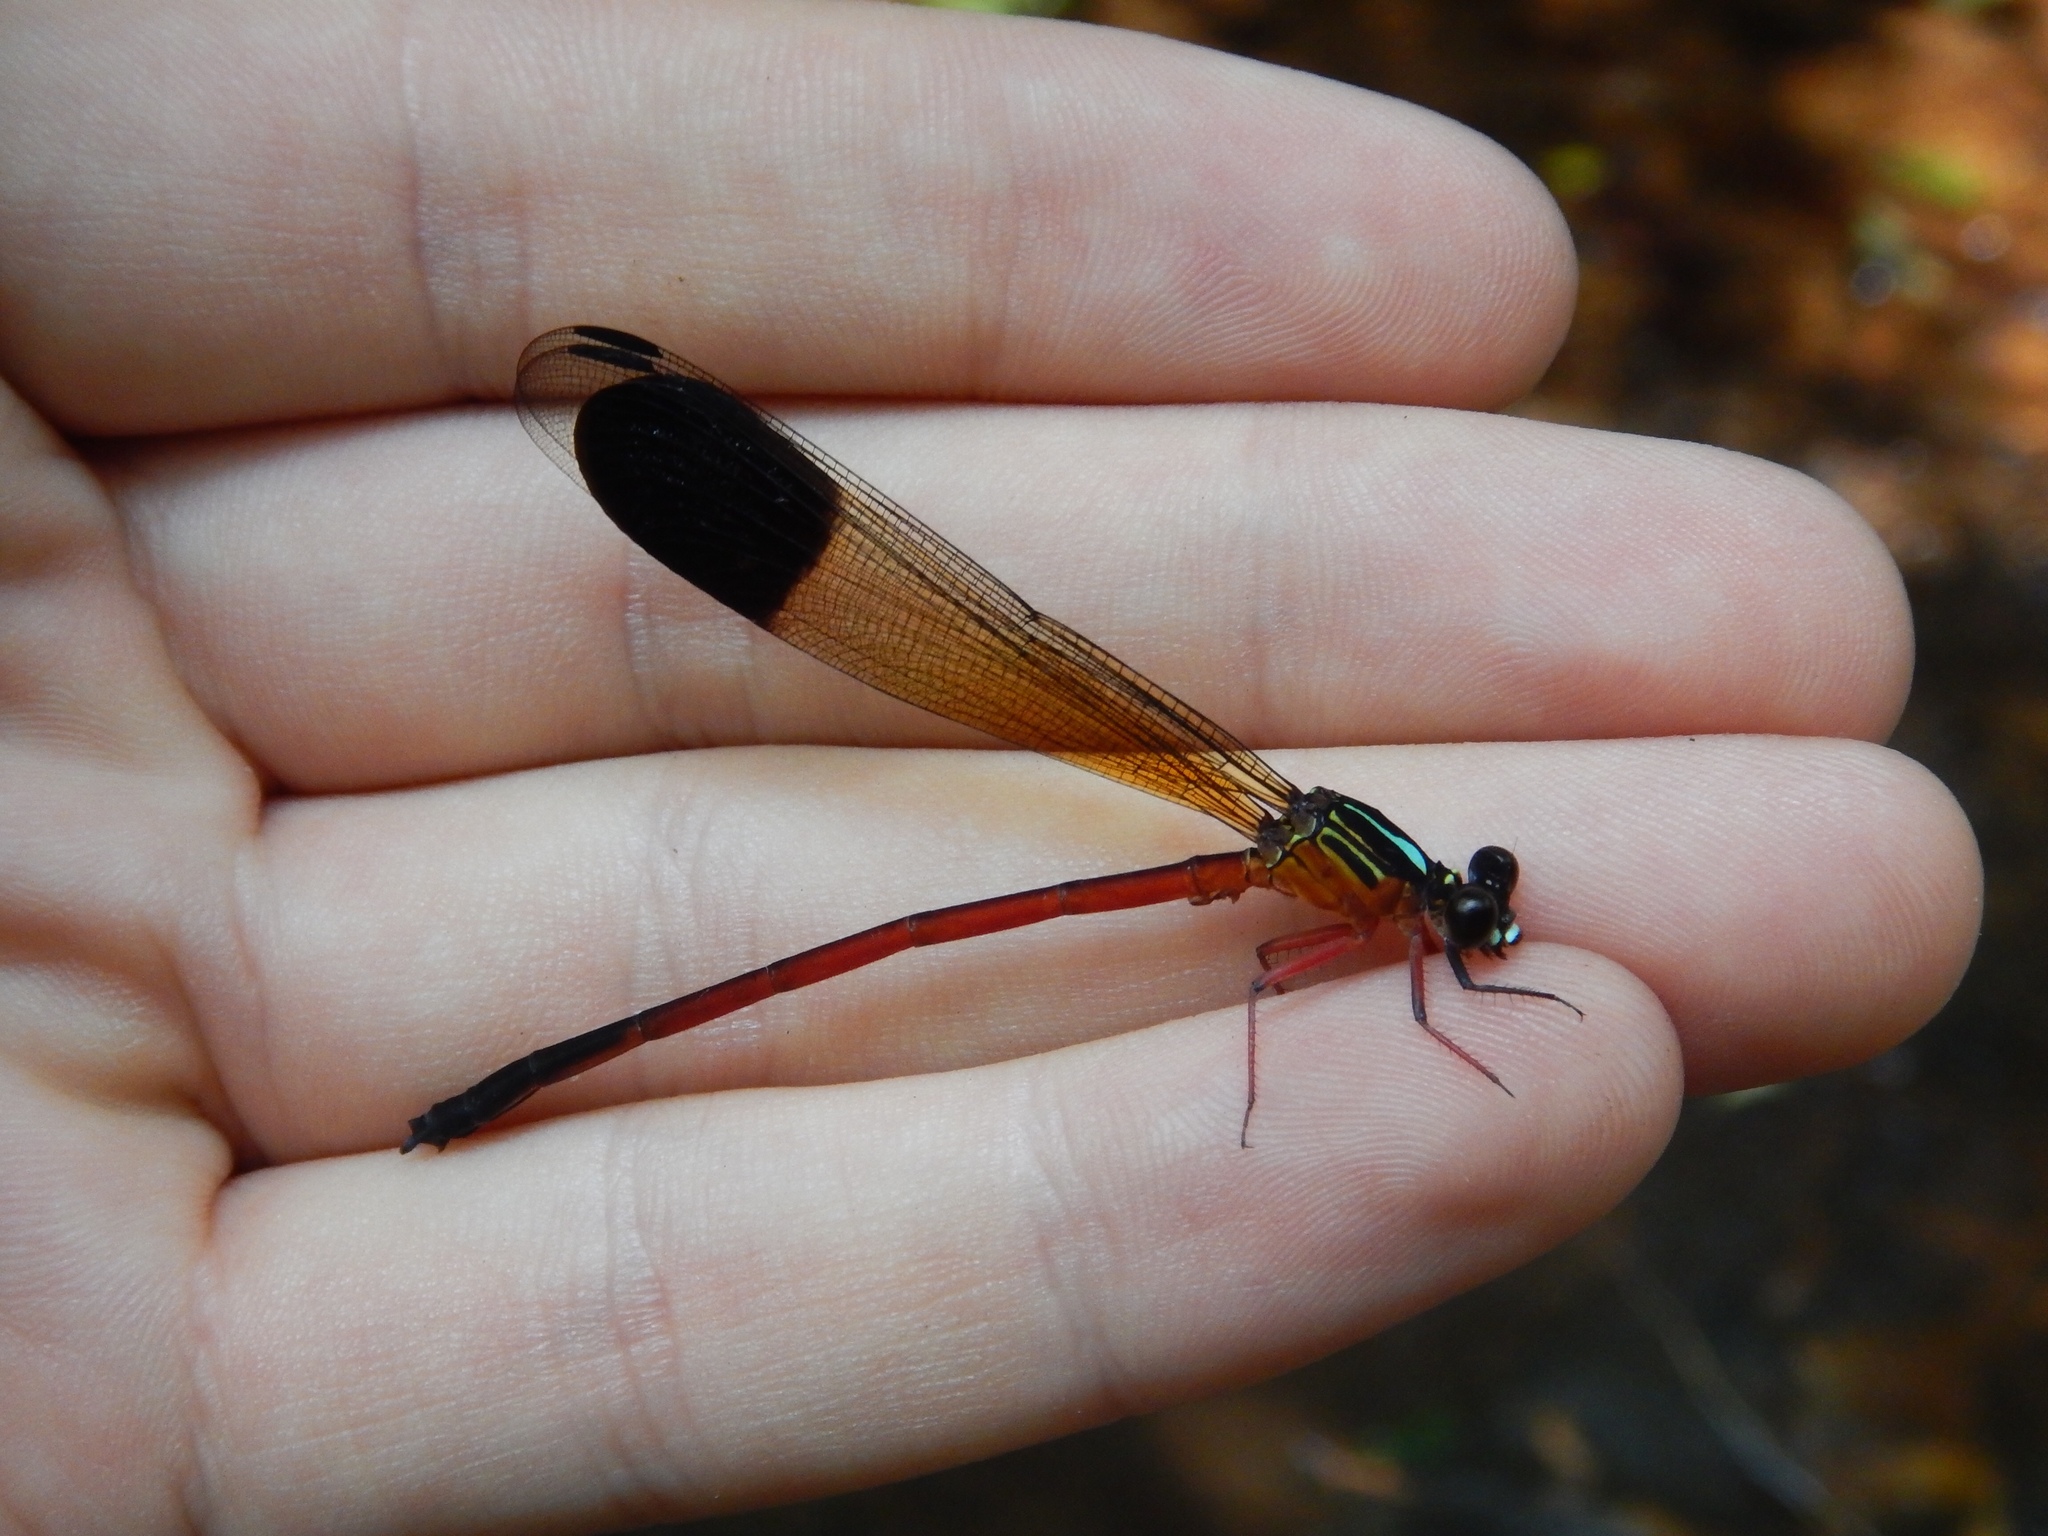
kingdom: Animalia
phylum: Arthropoda
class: Insecta
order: Odonata
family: Euphaeidae
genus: Euphaea
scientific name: Euphaea fraseri
